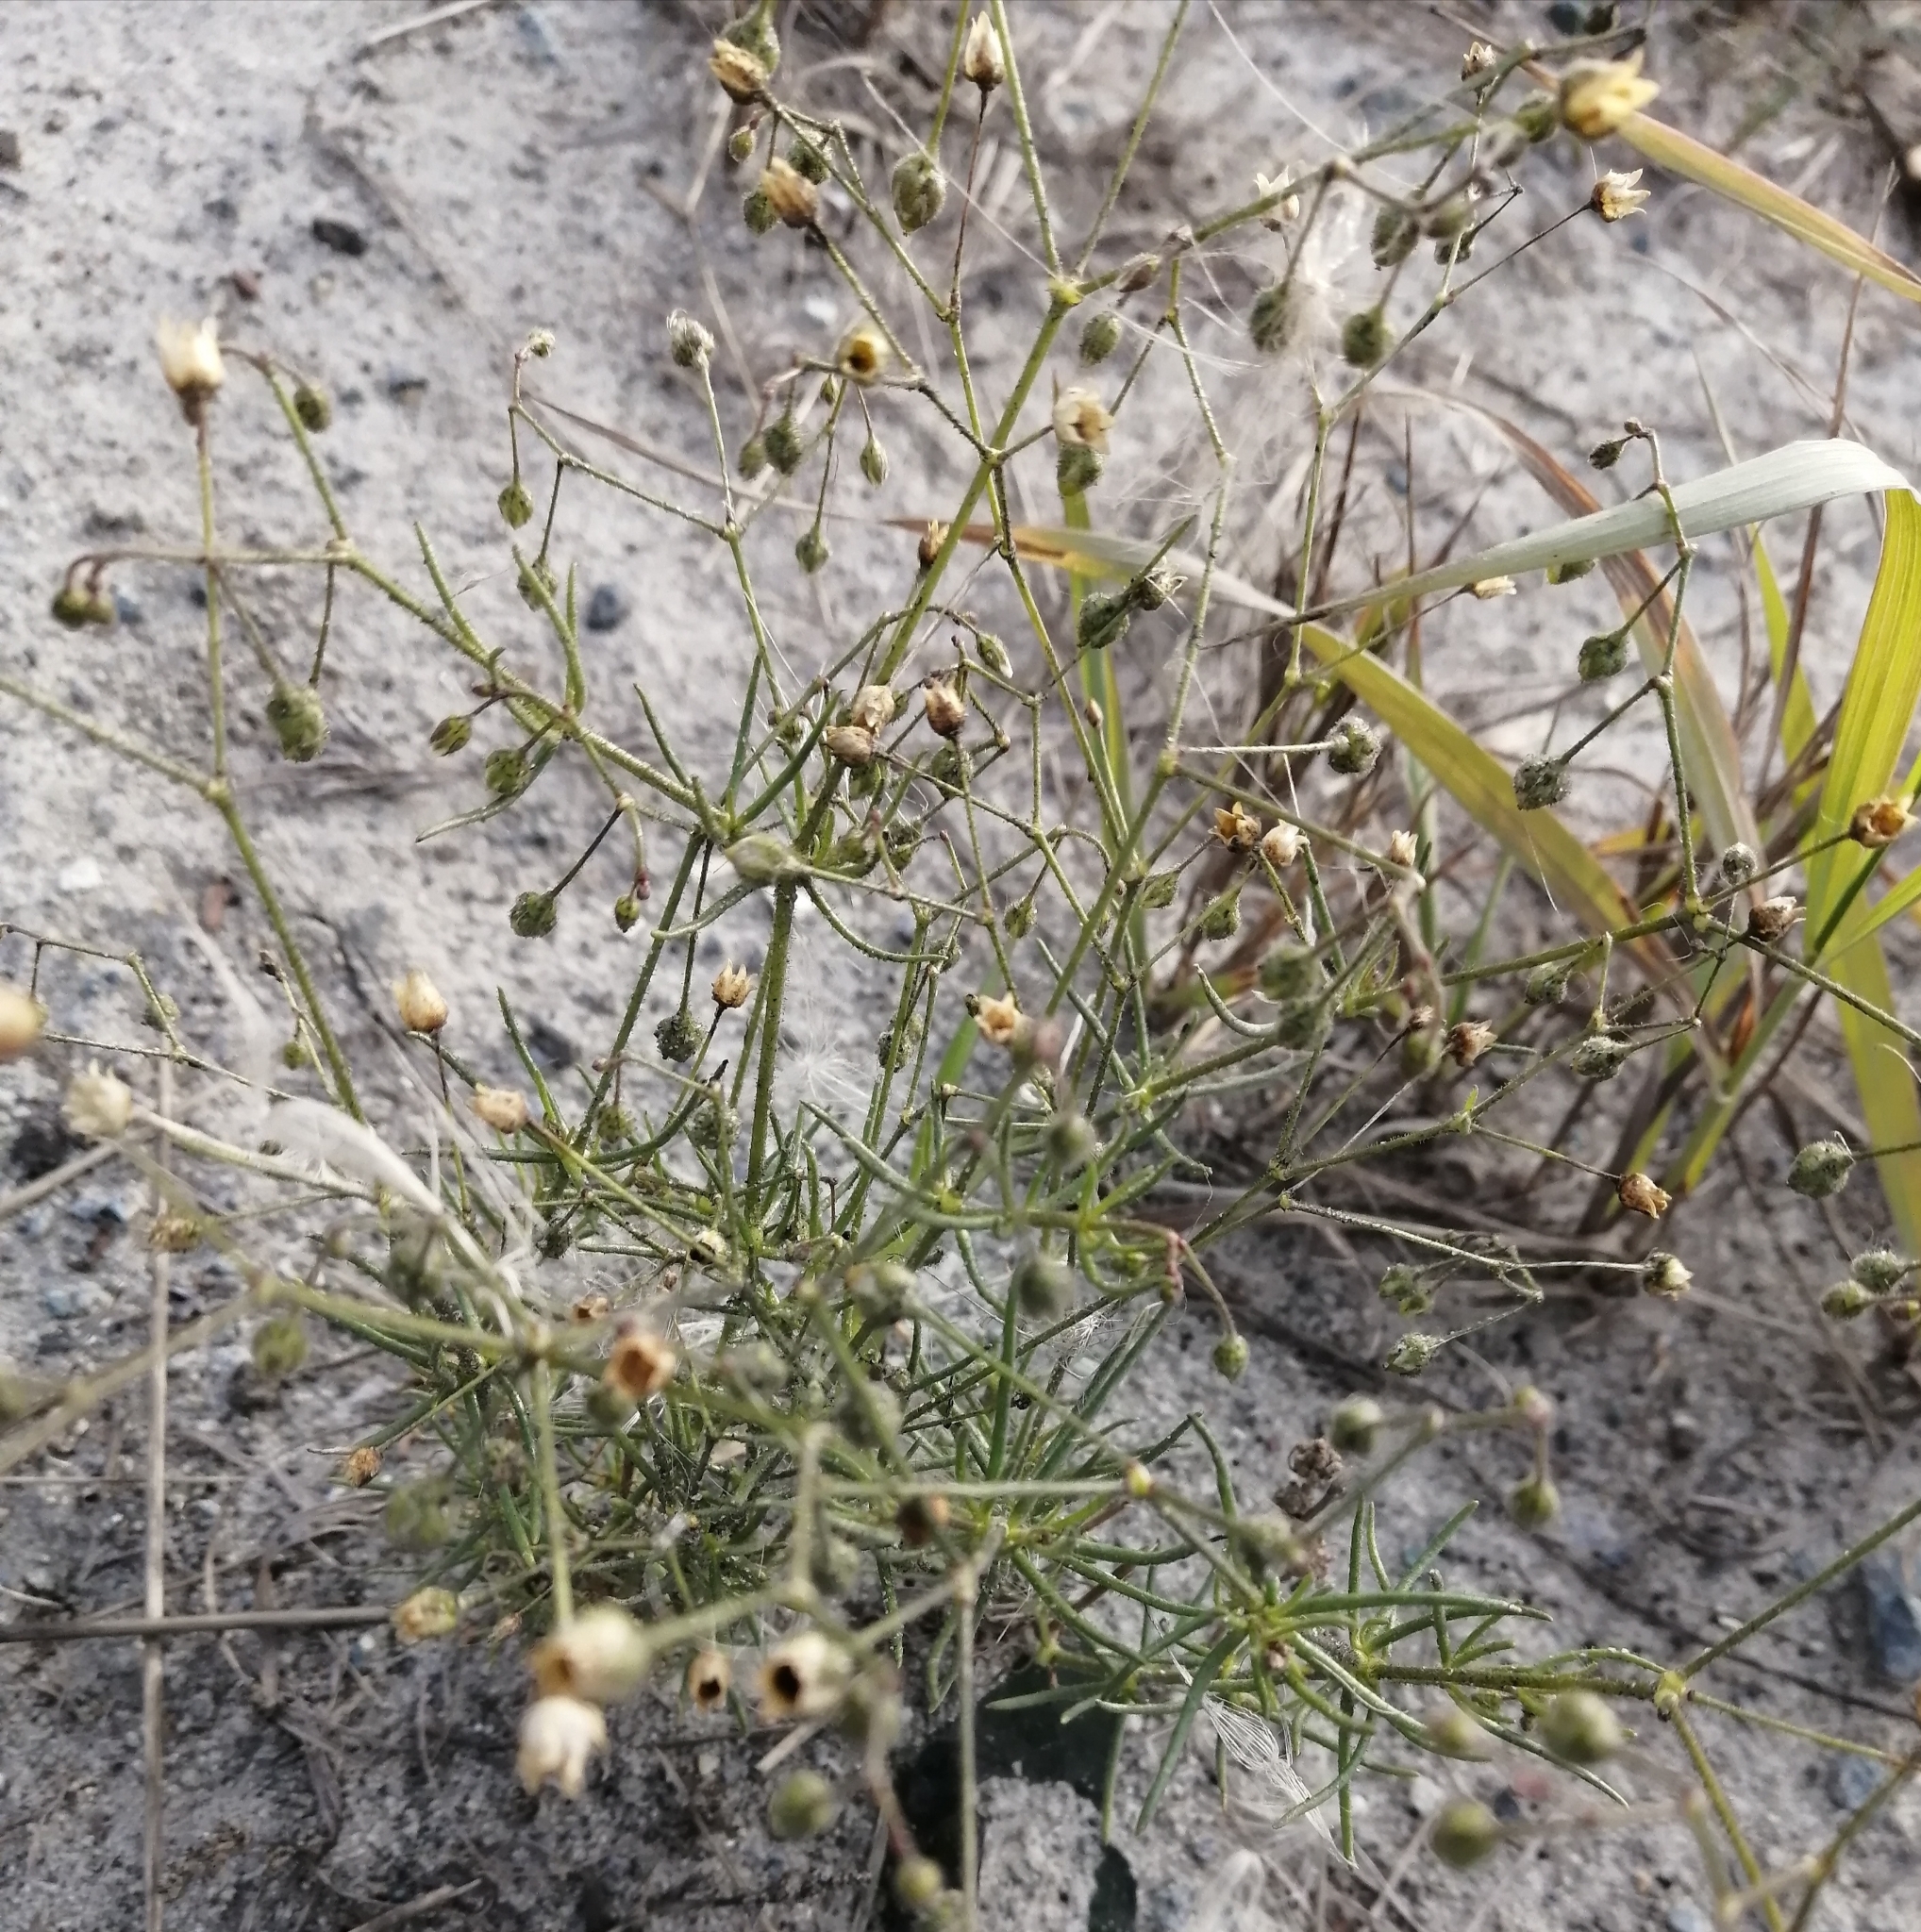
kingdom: Plantae
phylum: Tracheophyta
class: Magnoliopsida
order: Caryophyllales
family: Caryophyllaceae
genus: Spergula
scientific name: Spergula arvensis
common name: Corn spurrey
